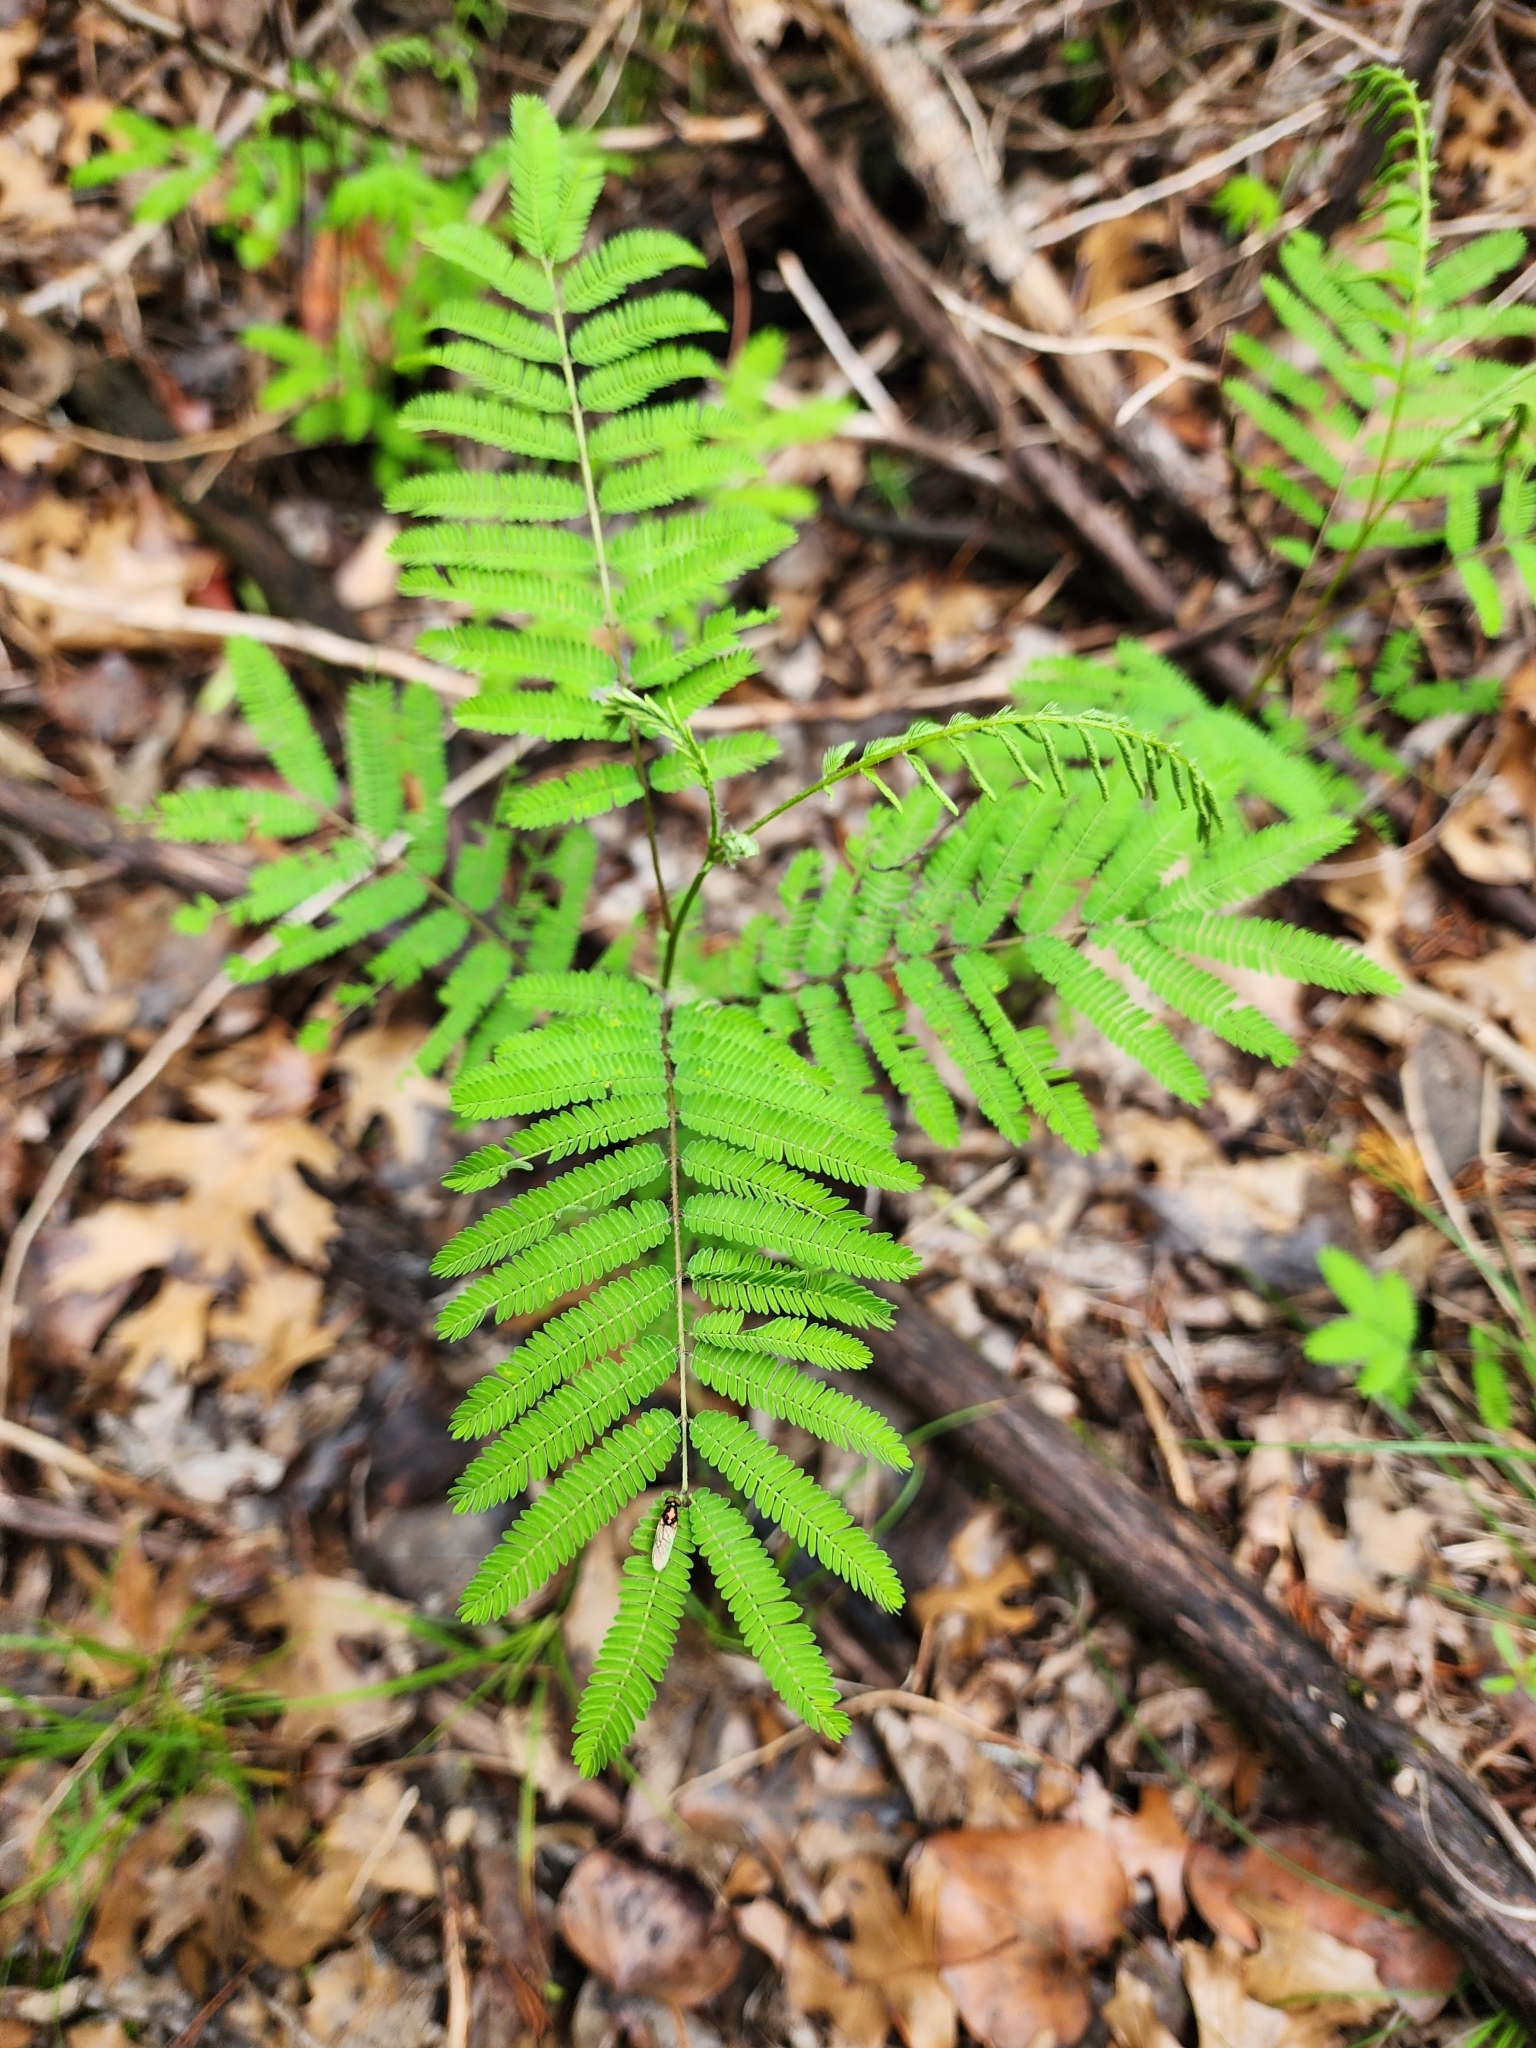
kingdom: Plantae
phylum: Tracheophyta
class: Magnoliopsida
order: Fabales
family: Fabaceae
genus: Acaciella
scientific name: Acaciella angustissima
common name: Prairie acacia
